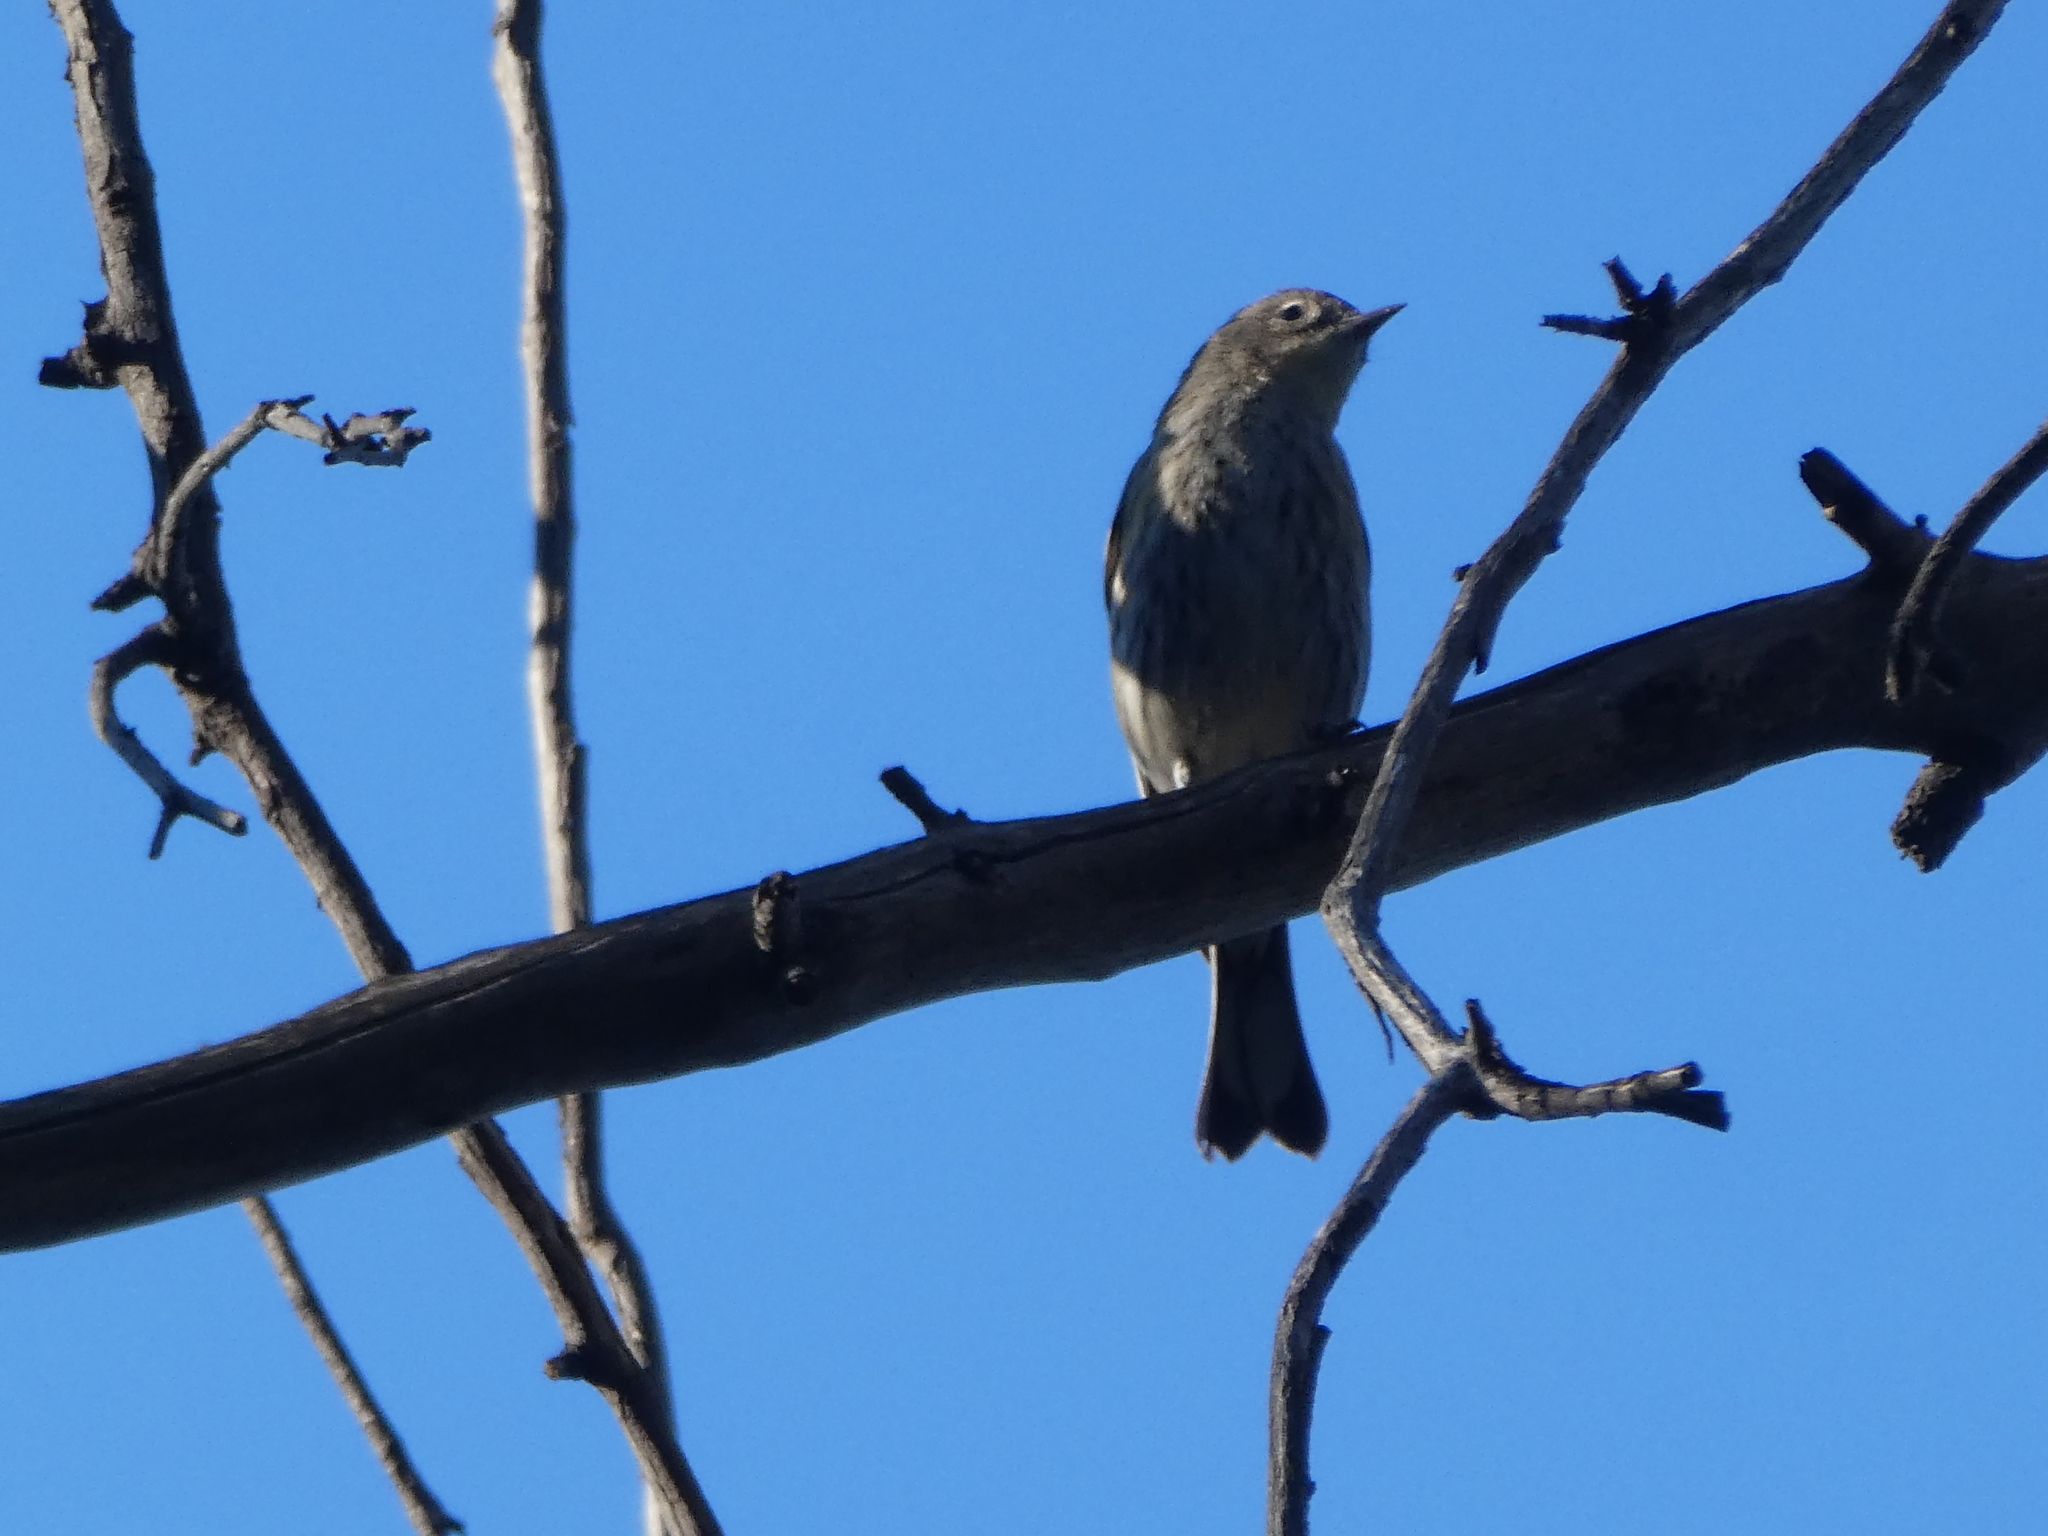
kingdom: Animalia
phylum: Chordata
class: Aves
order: Passeriformes
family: Parulidae
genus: Setophaga
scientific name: Setophaga coronata
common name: Myrtle warbler
